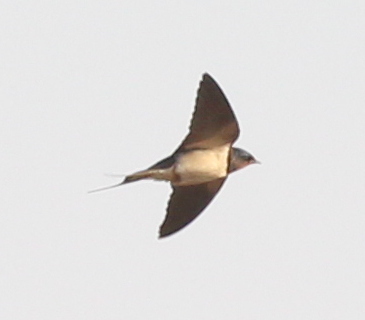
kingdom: Animalia
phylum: Chordata
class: Aves
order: Passeriformes
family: Hirundinidae
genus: Hirundo
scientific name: Hirundo rustica
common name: Barn swallow
